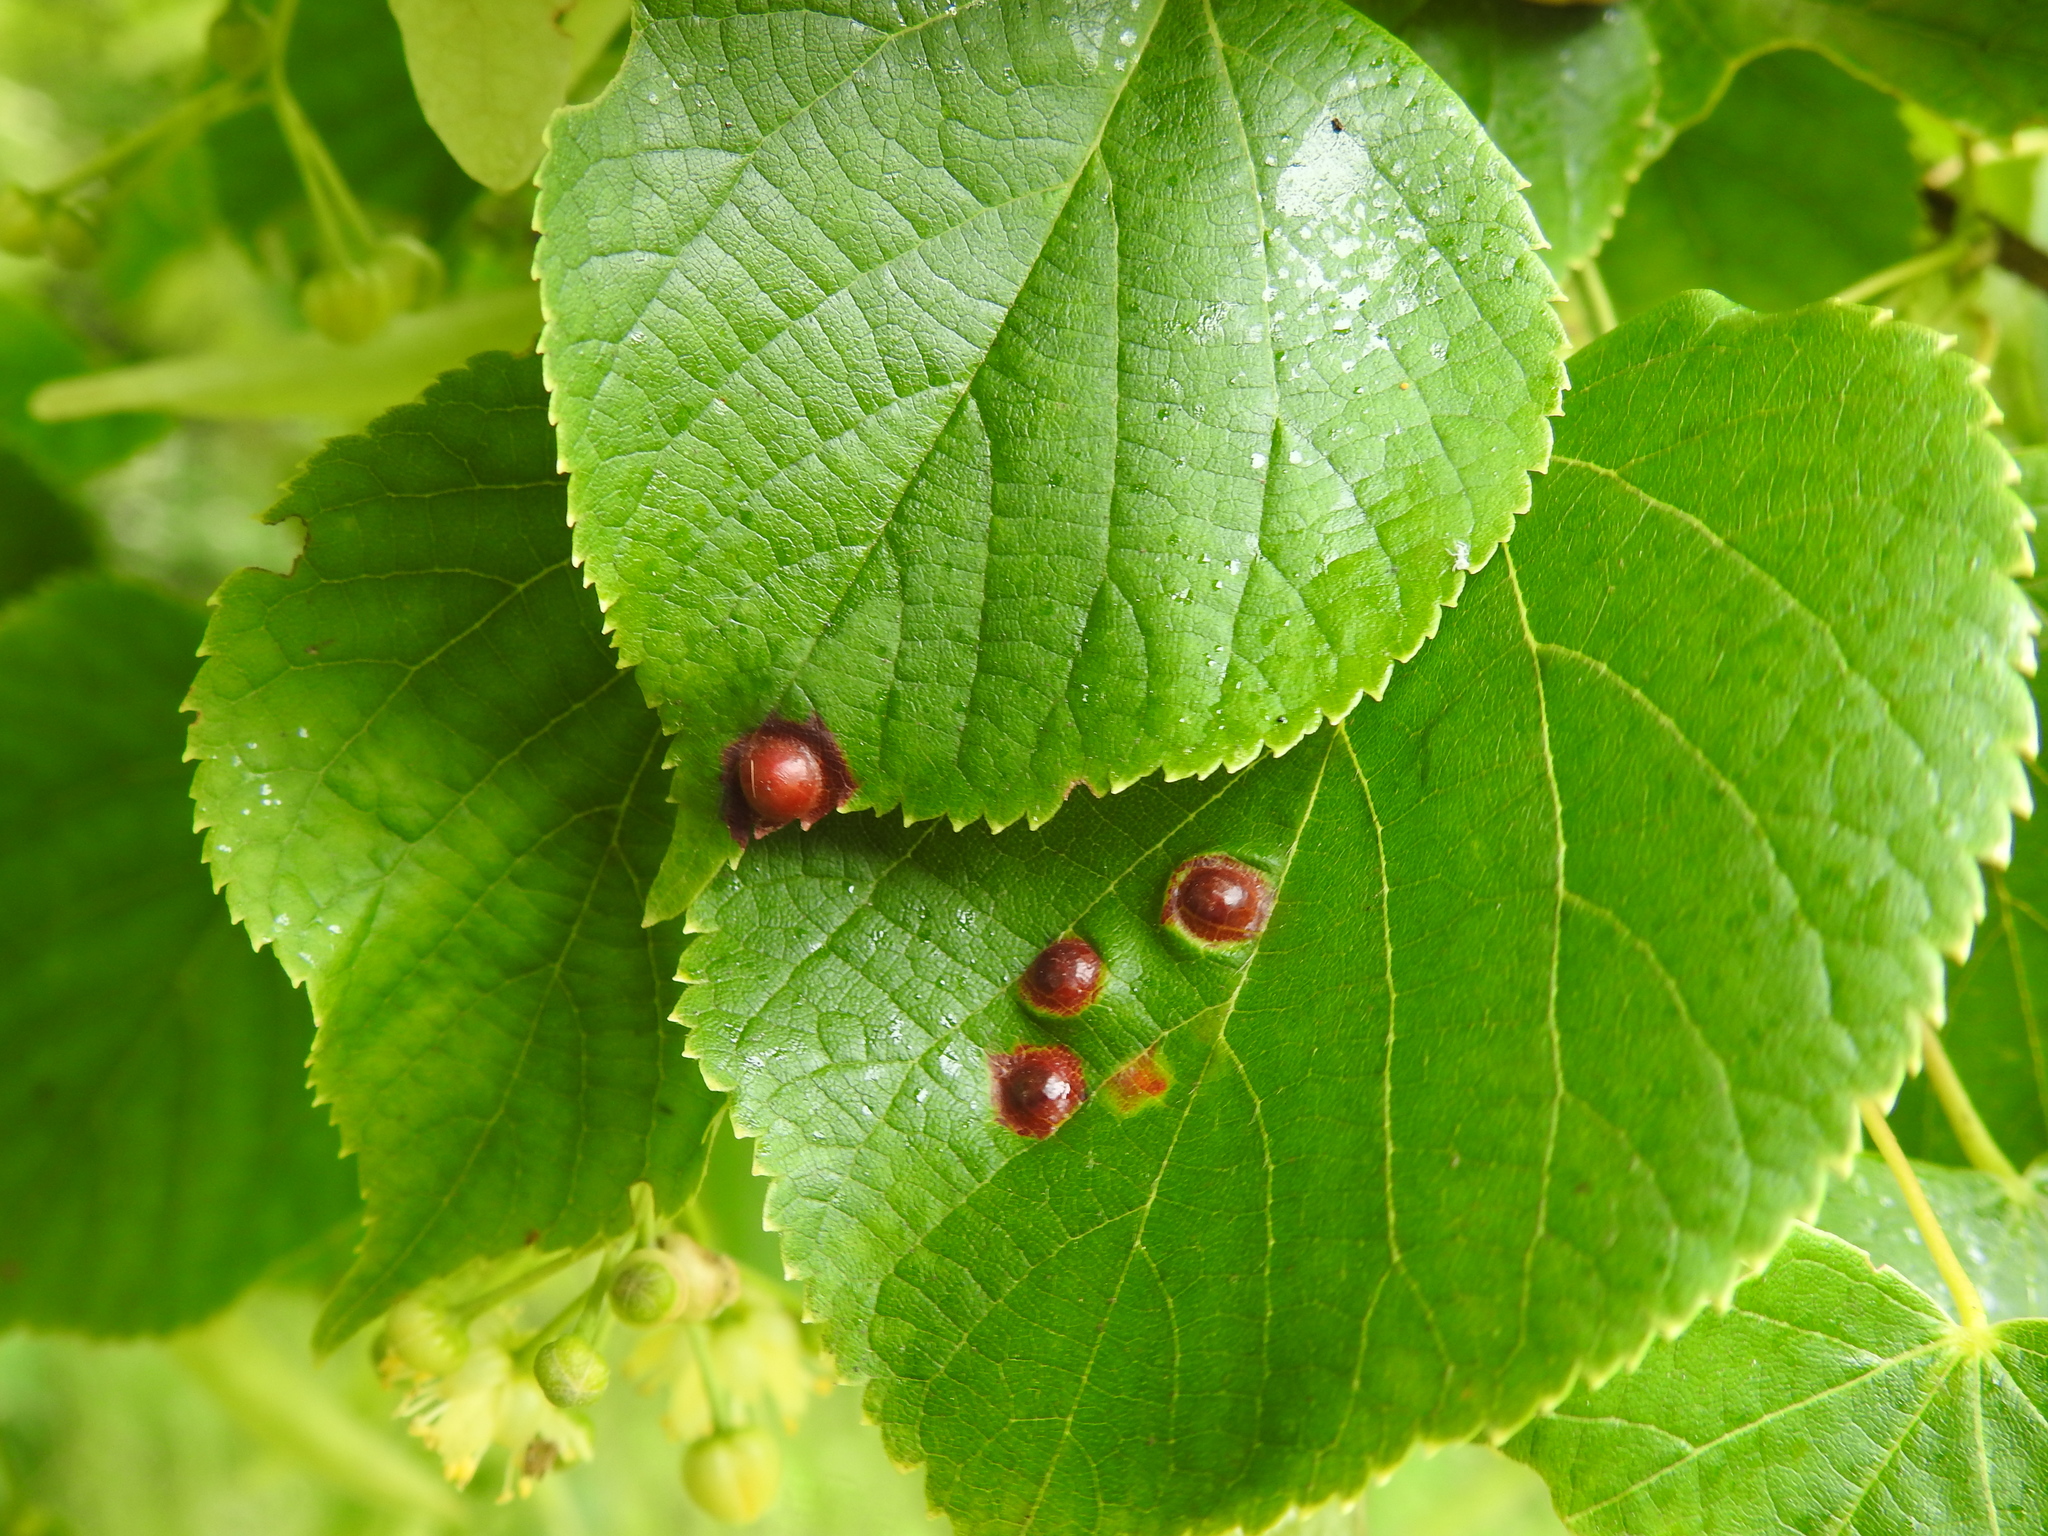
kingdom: Animalia
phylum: Arthropoda
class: Insecta
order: Diptera
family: Cecidomyiidae
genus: Didymomyia
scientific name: Didymomyia tiliacea
